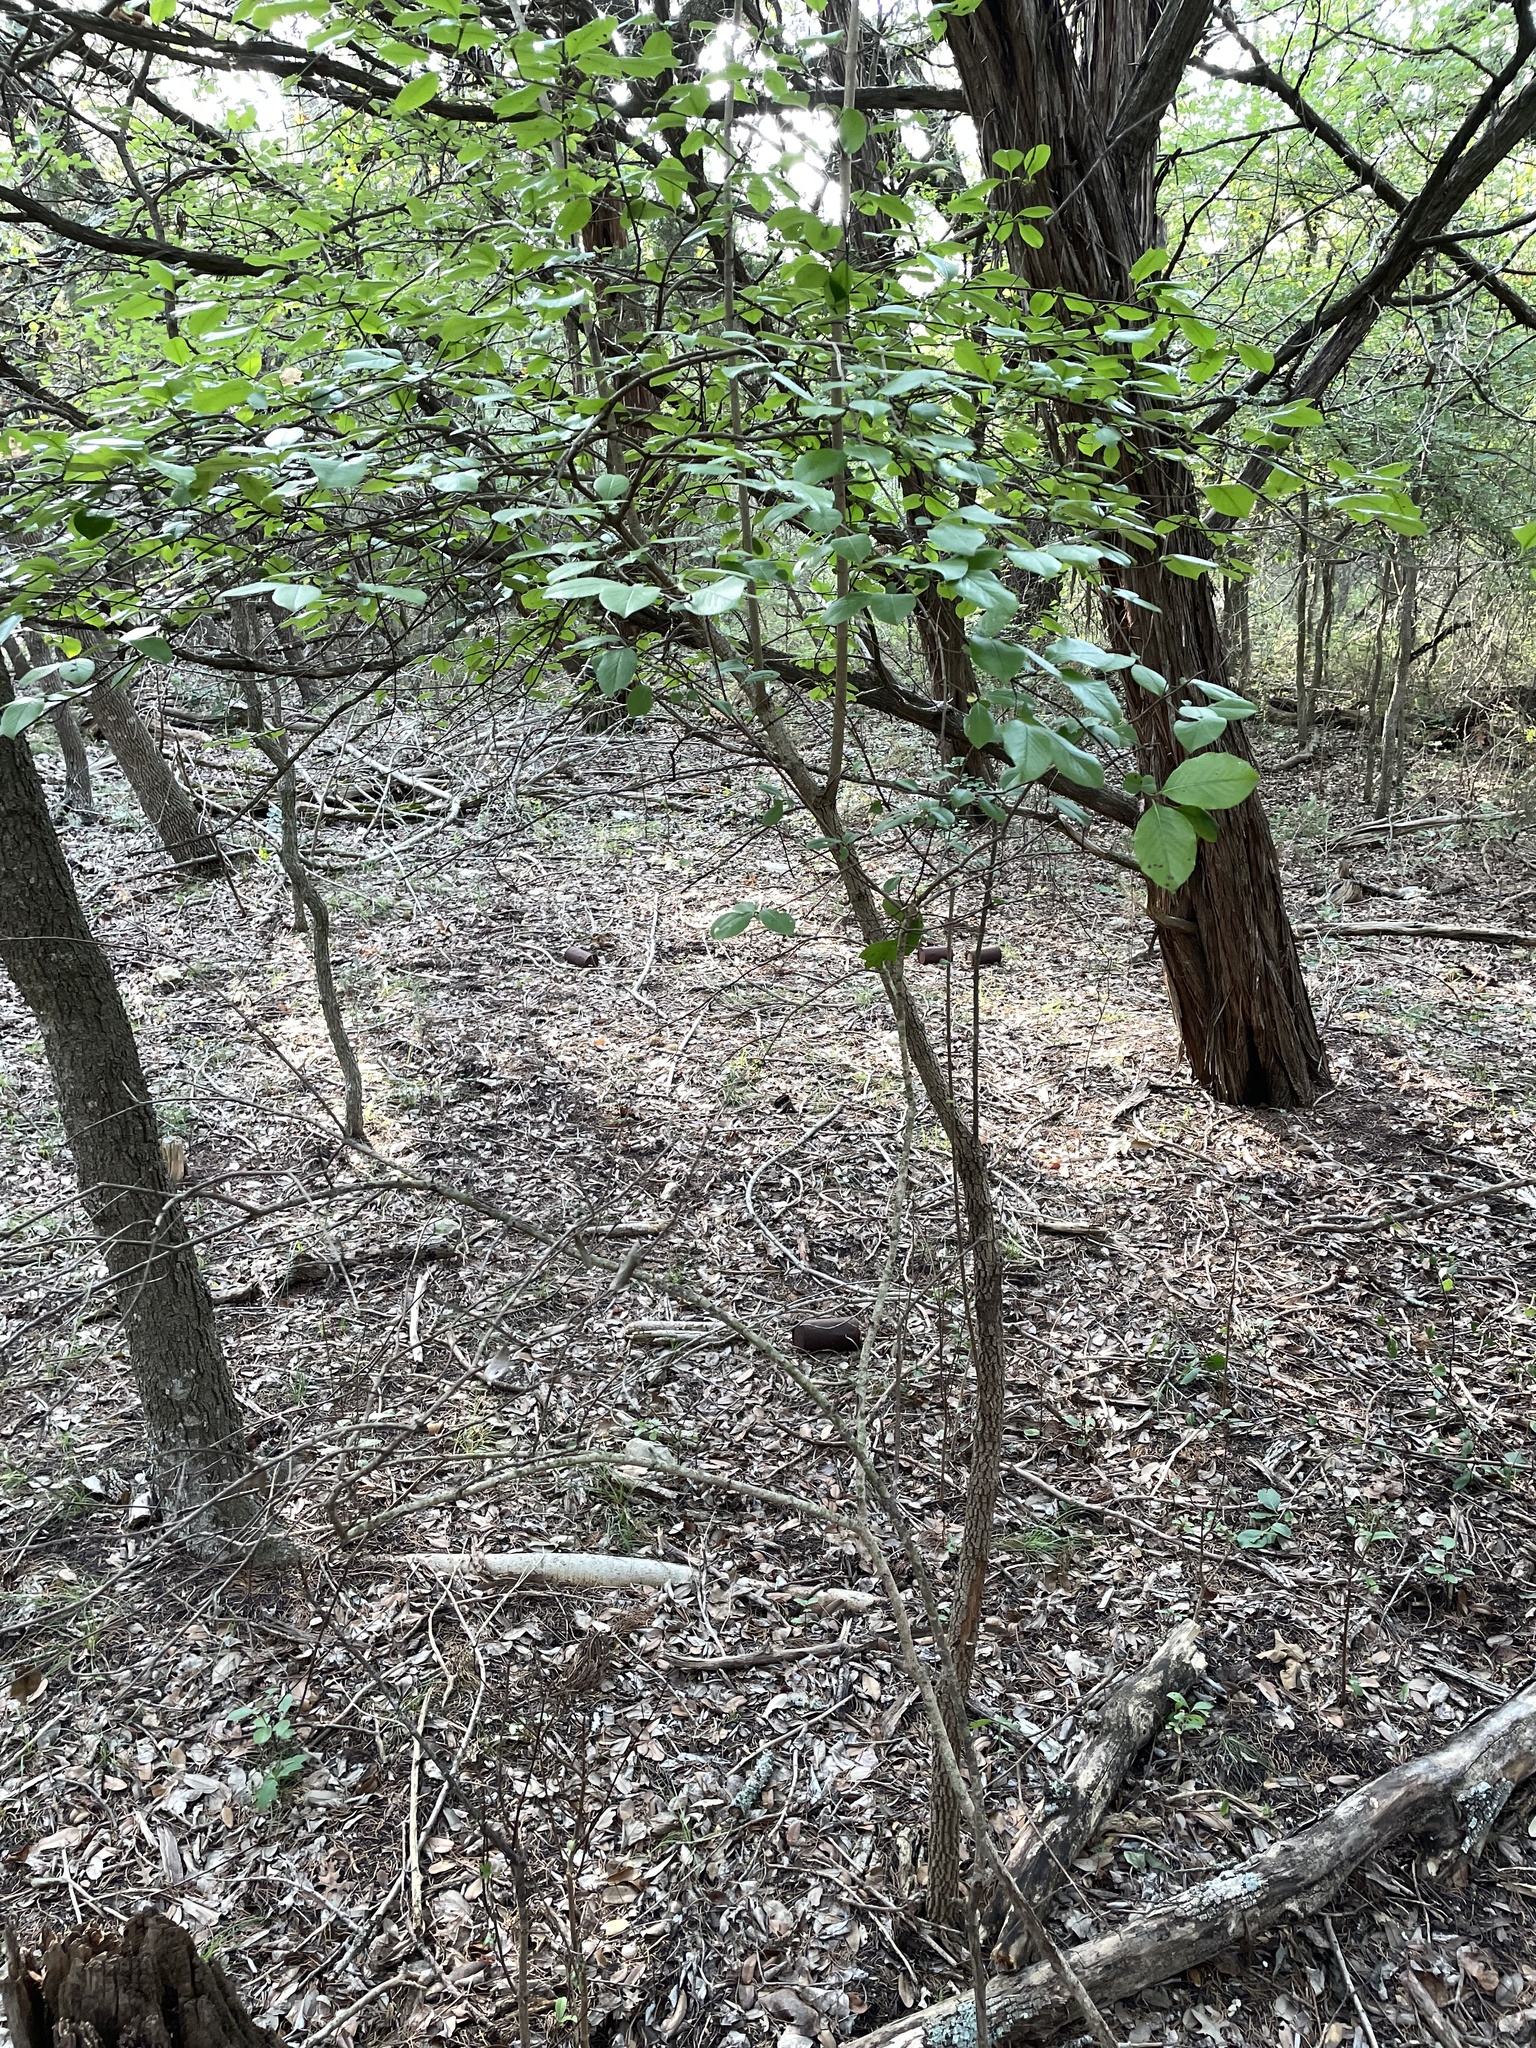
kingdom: Plantae
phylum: Tracheophyta
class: Magnoliopsida
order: Dipsacales
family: Viburnaceae
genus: Viburnum
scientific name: Viburnum rufidulum
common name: Blue haw
